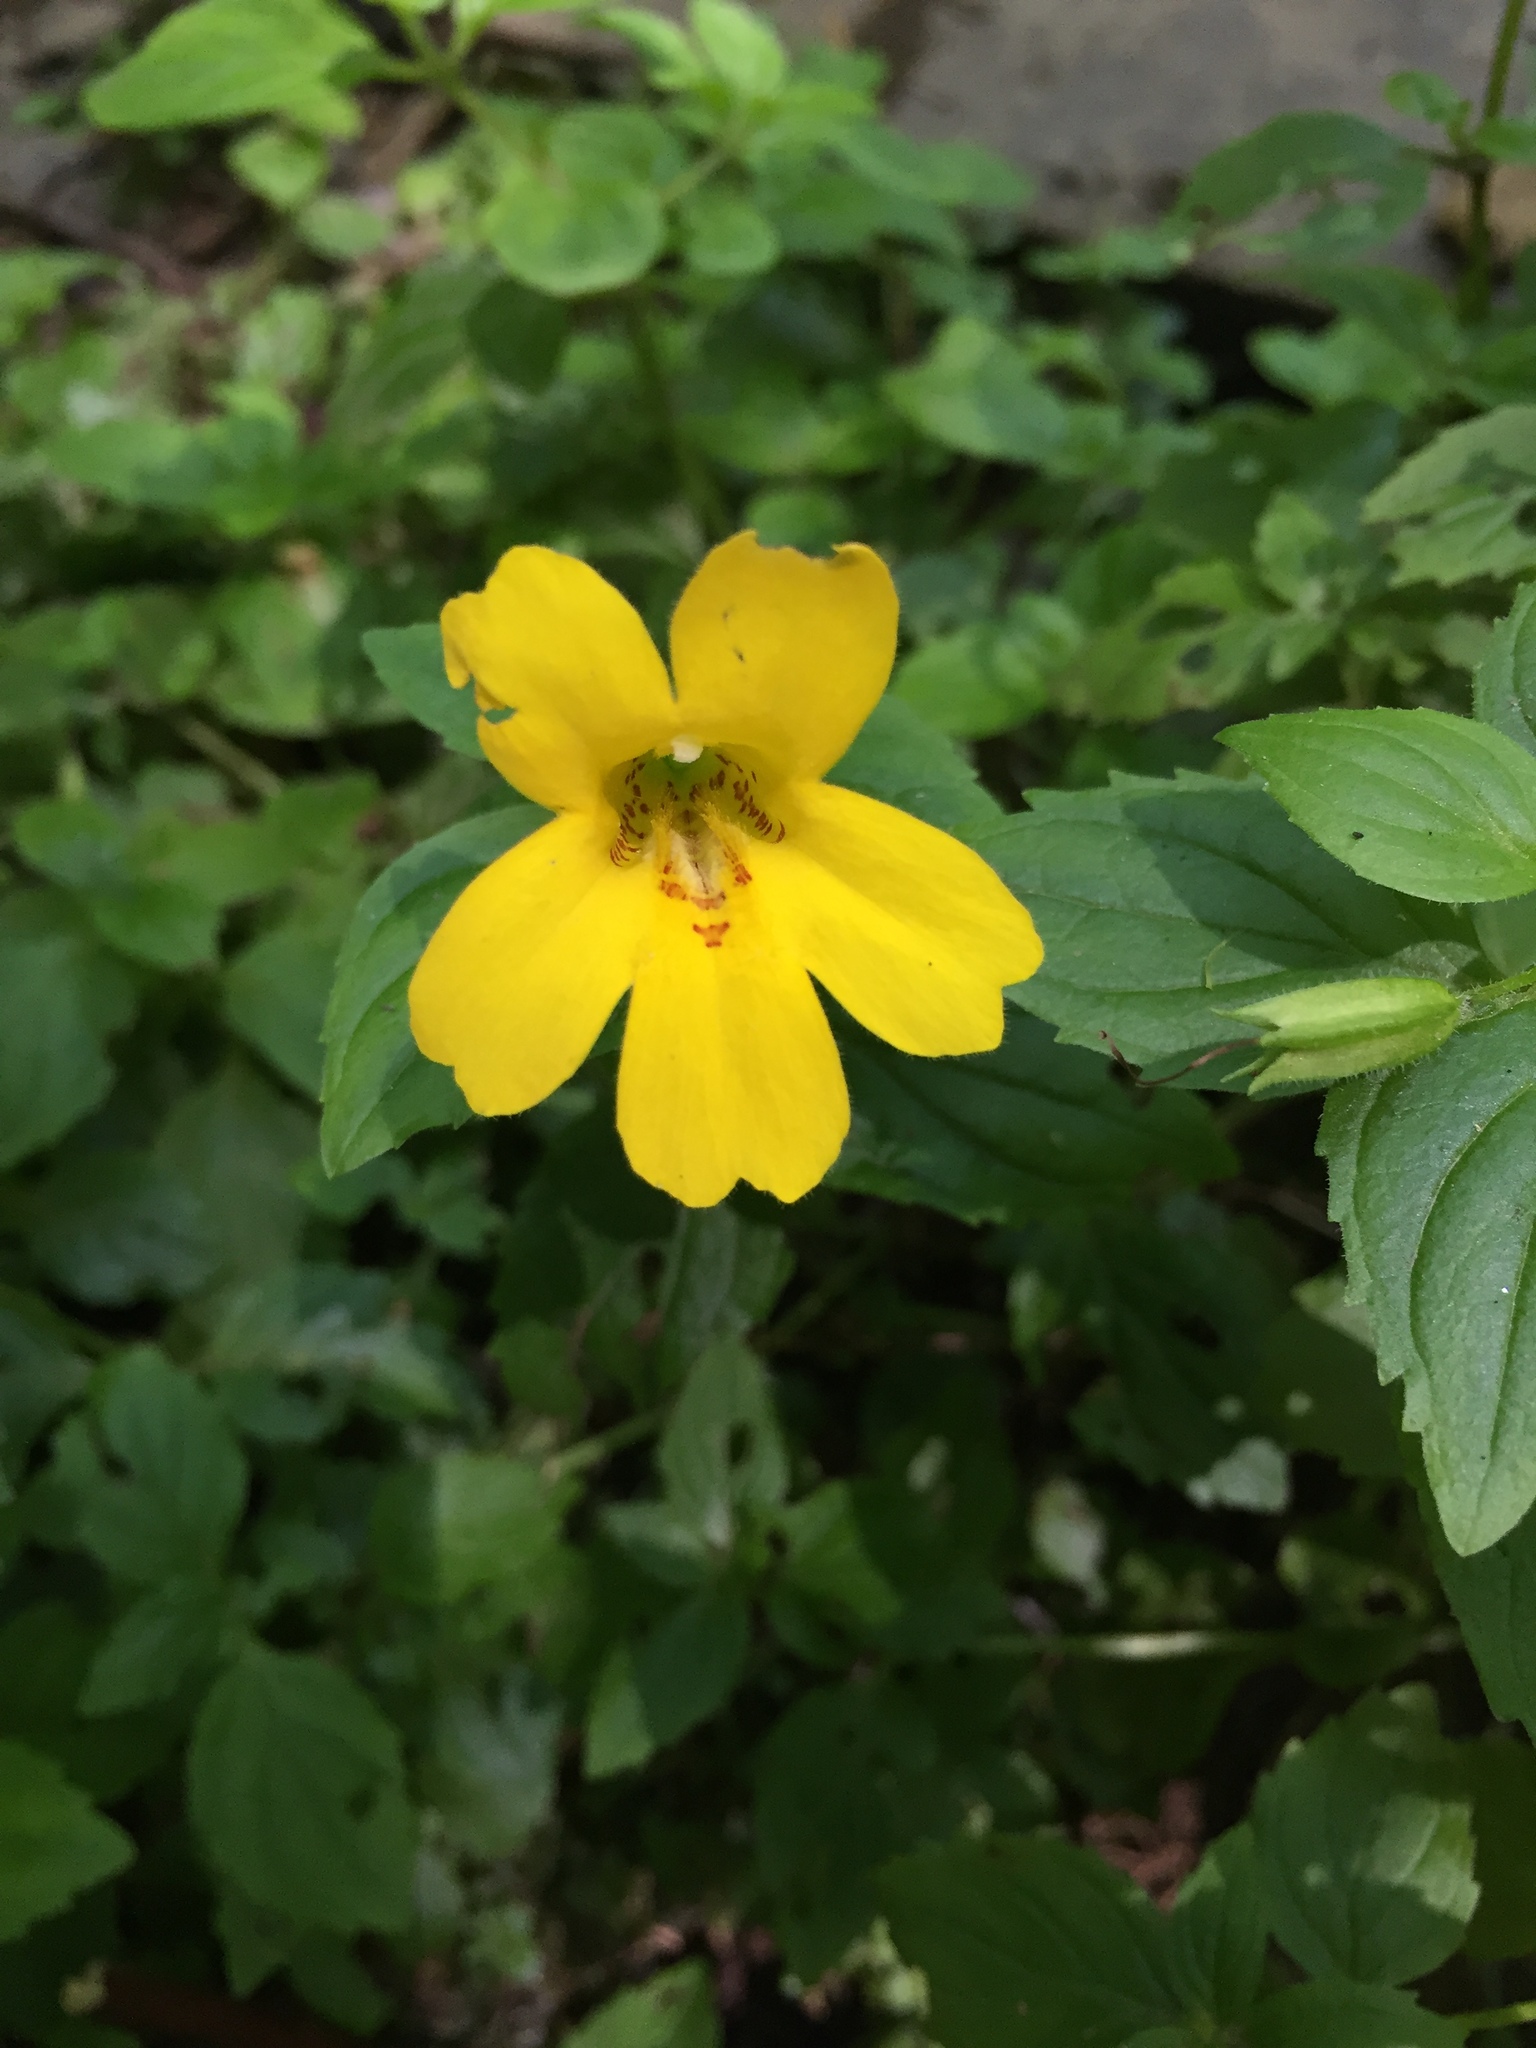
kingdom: Plantae
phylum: Tracheophyta
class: Magnoliopsida
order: Lamiales
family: Phrymaceae
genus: Erythranthe
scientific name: Erythranthe dentata
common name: Coastal monkeyflower
